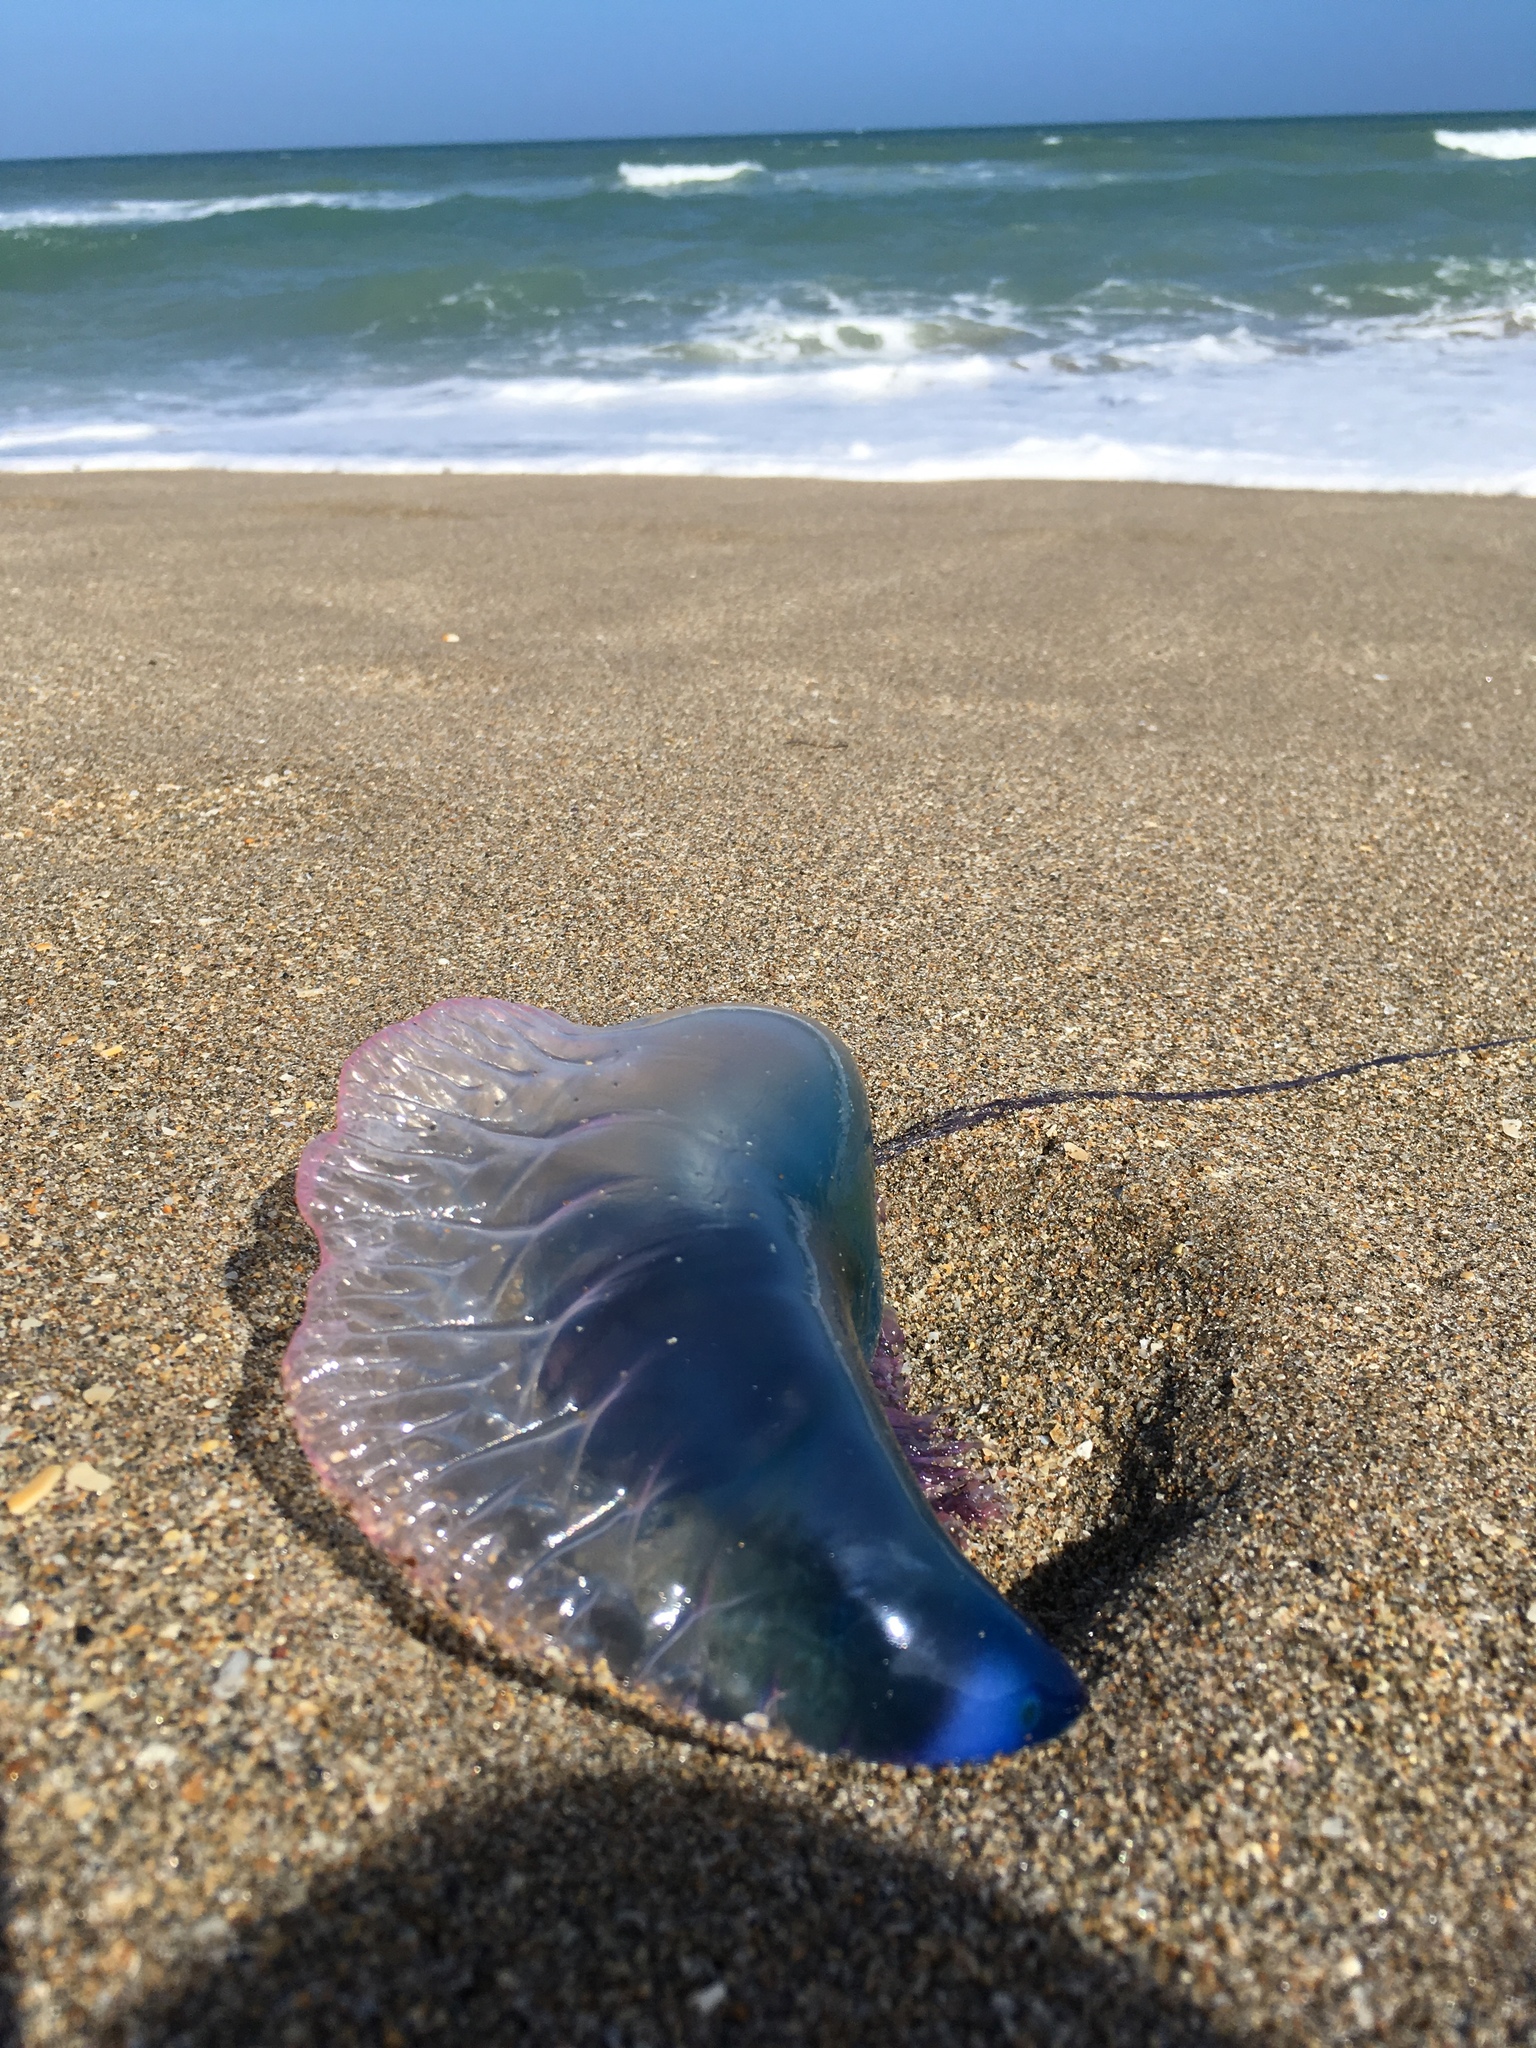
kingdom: Animalia
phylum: Cnidaria
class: Hydrozoa
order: Siphonophorae
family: Physaliidae
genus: Physalia
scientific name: Physalia physalis
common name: Portuguese man-of-war
